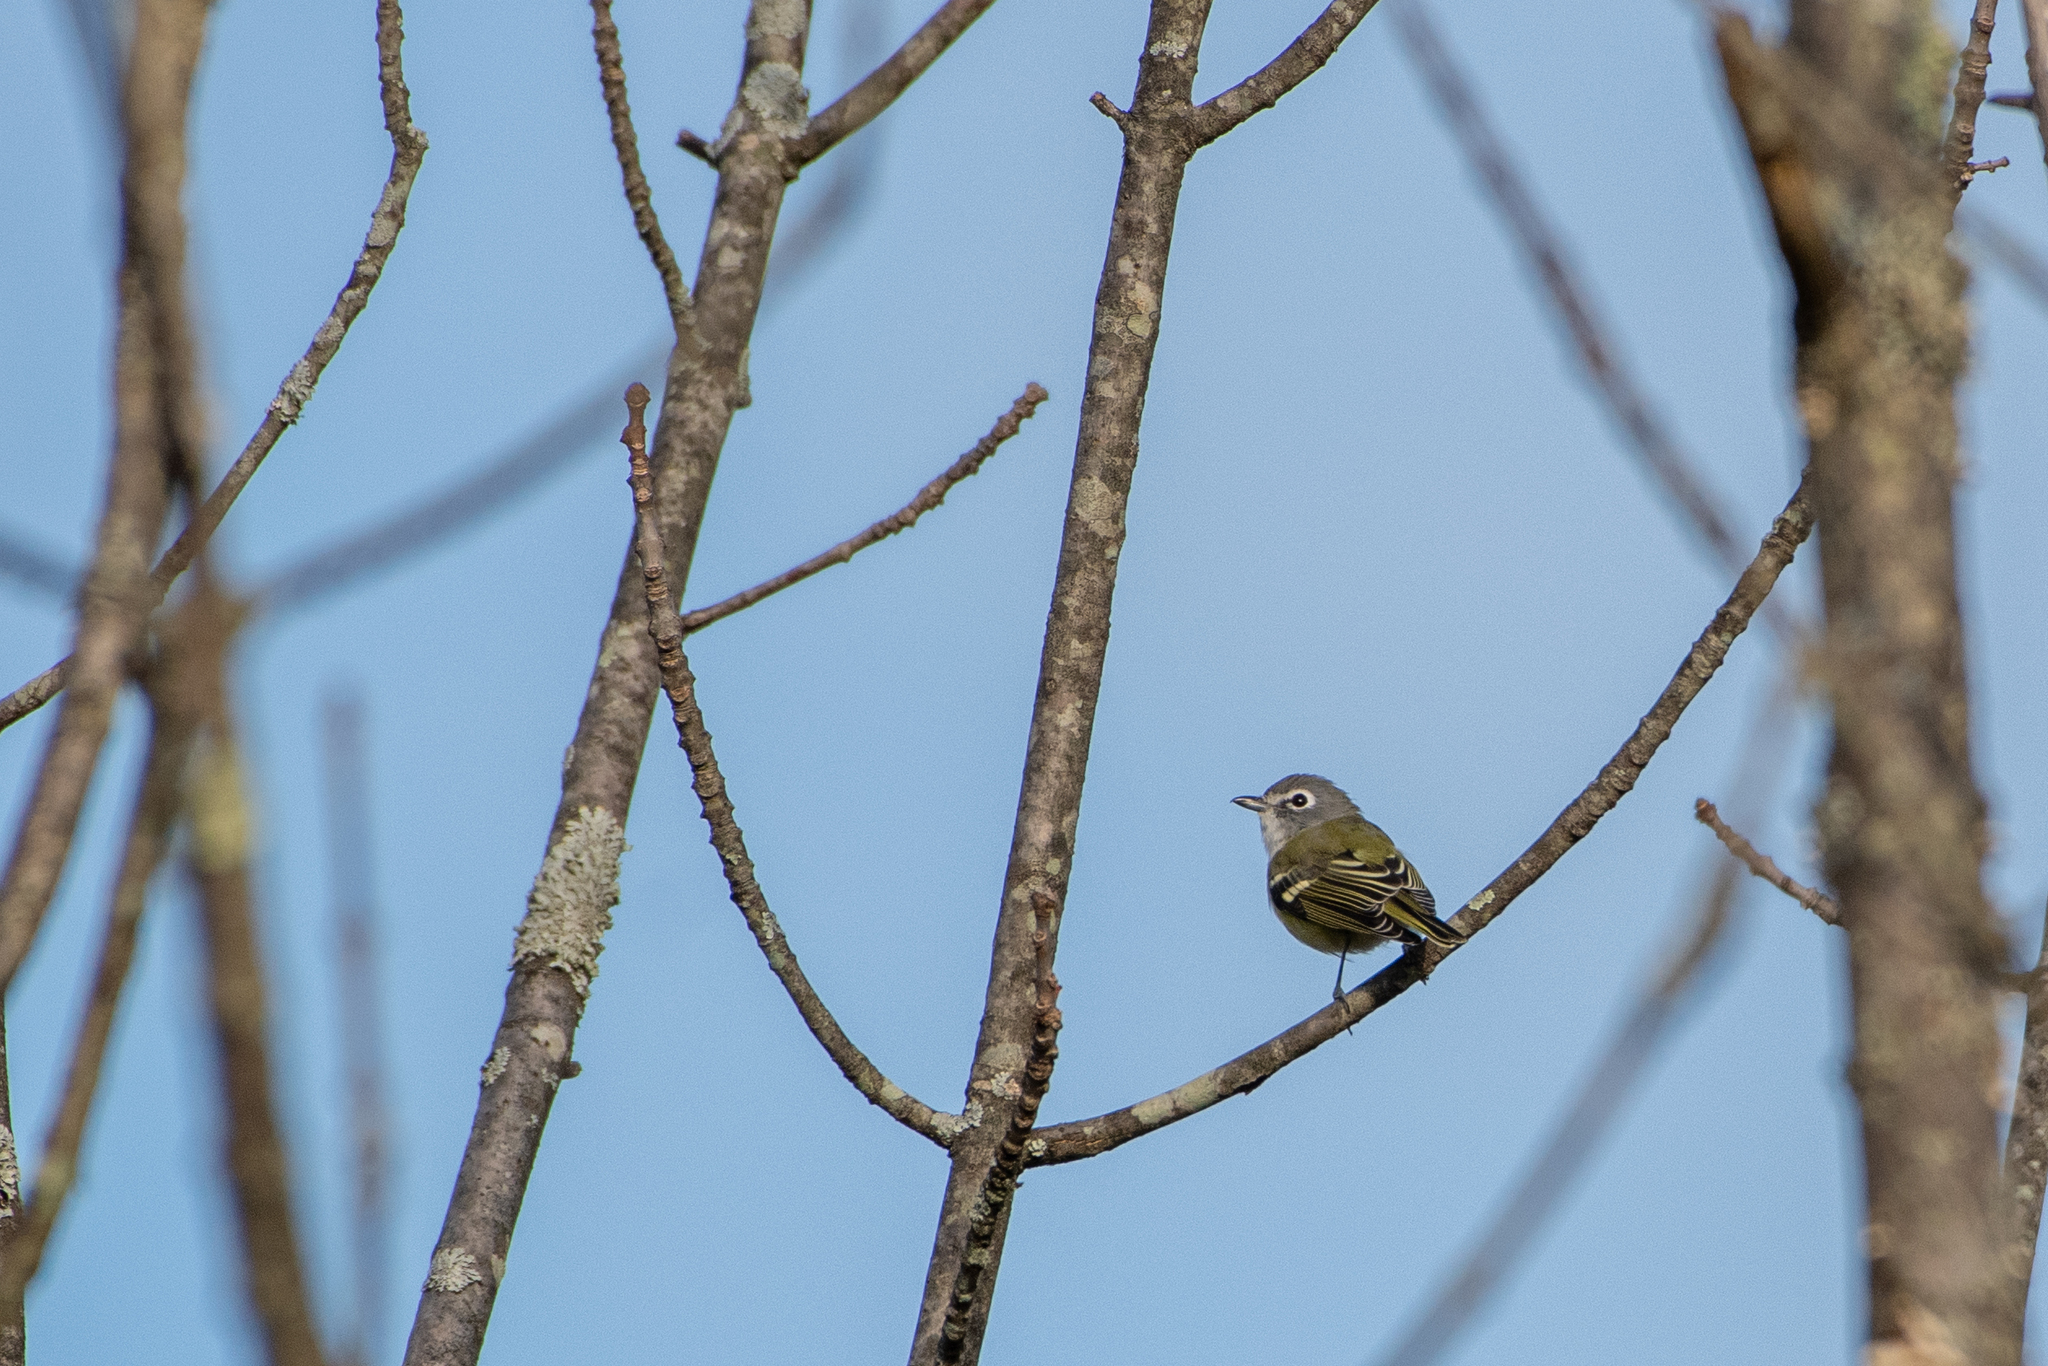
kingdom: Animalia
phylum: Chordata
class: Aves
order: Passeriformes
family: Vireonidae
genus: Vireo
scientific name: Vireo solitarius
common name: Blue-headed vireo
